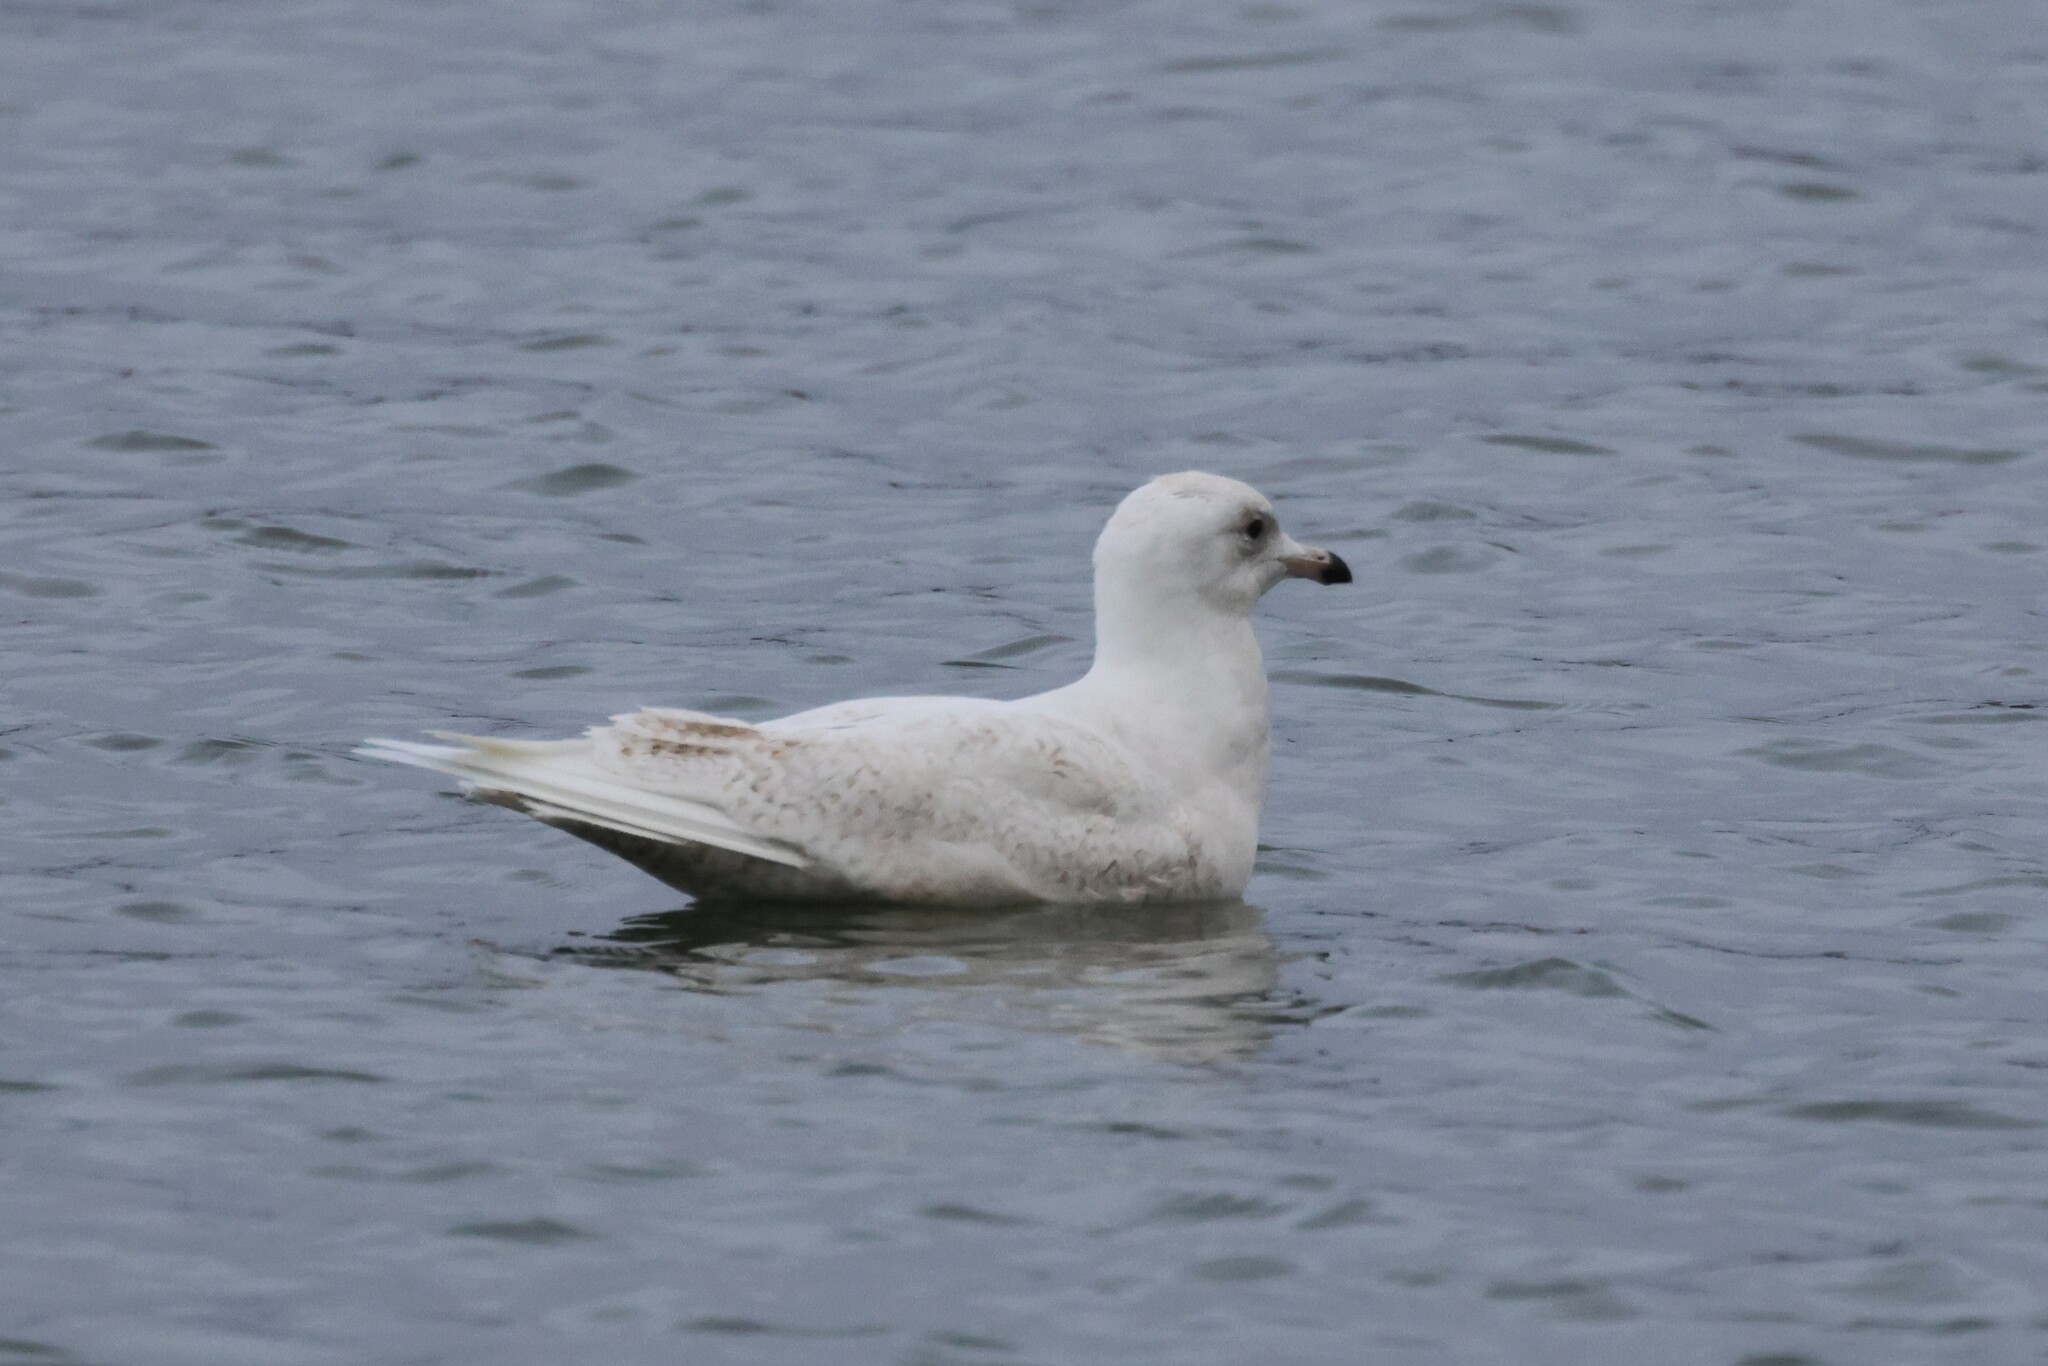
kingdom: Animalia
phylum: Chordata
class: Aves
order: Charadriiformes
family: Laridae
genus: Larus
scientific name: Larus glaucoides
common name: Iceland gull
